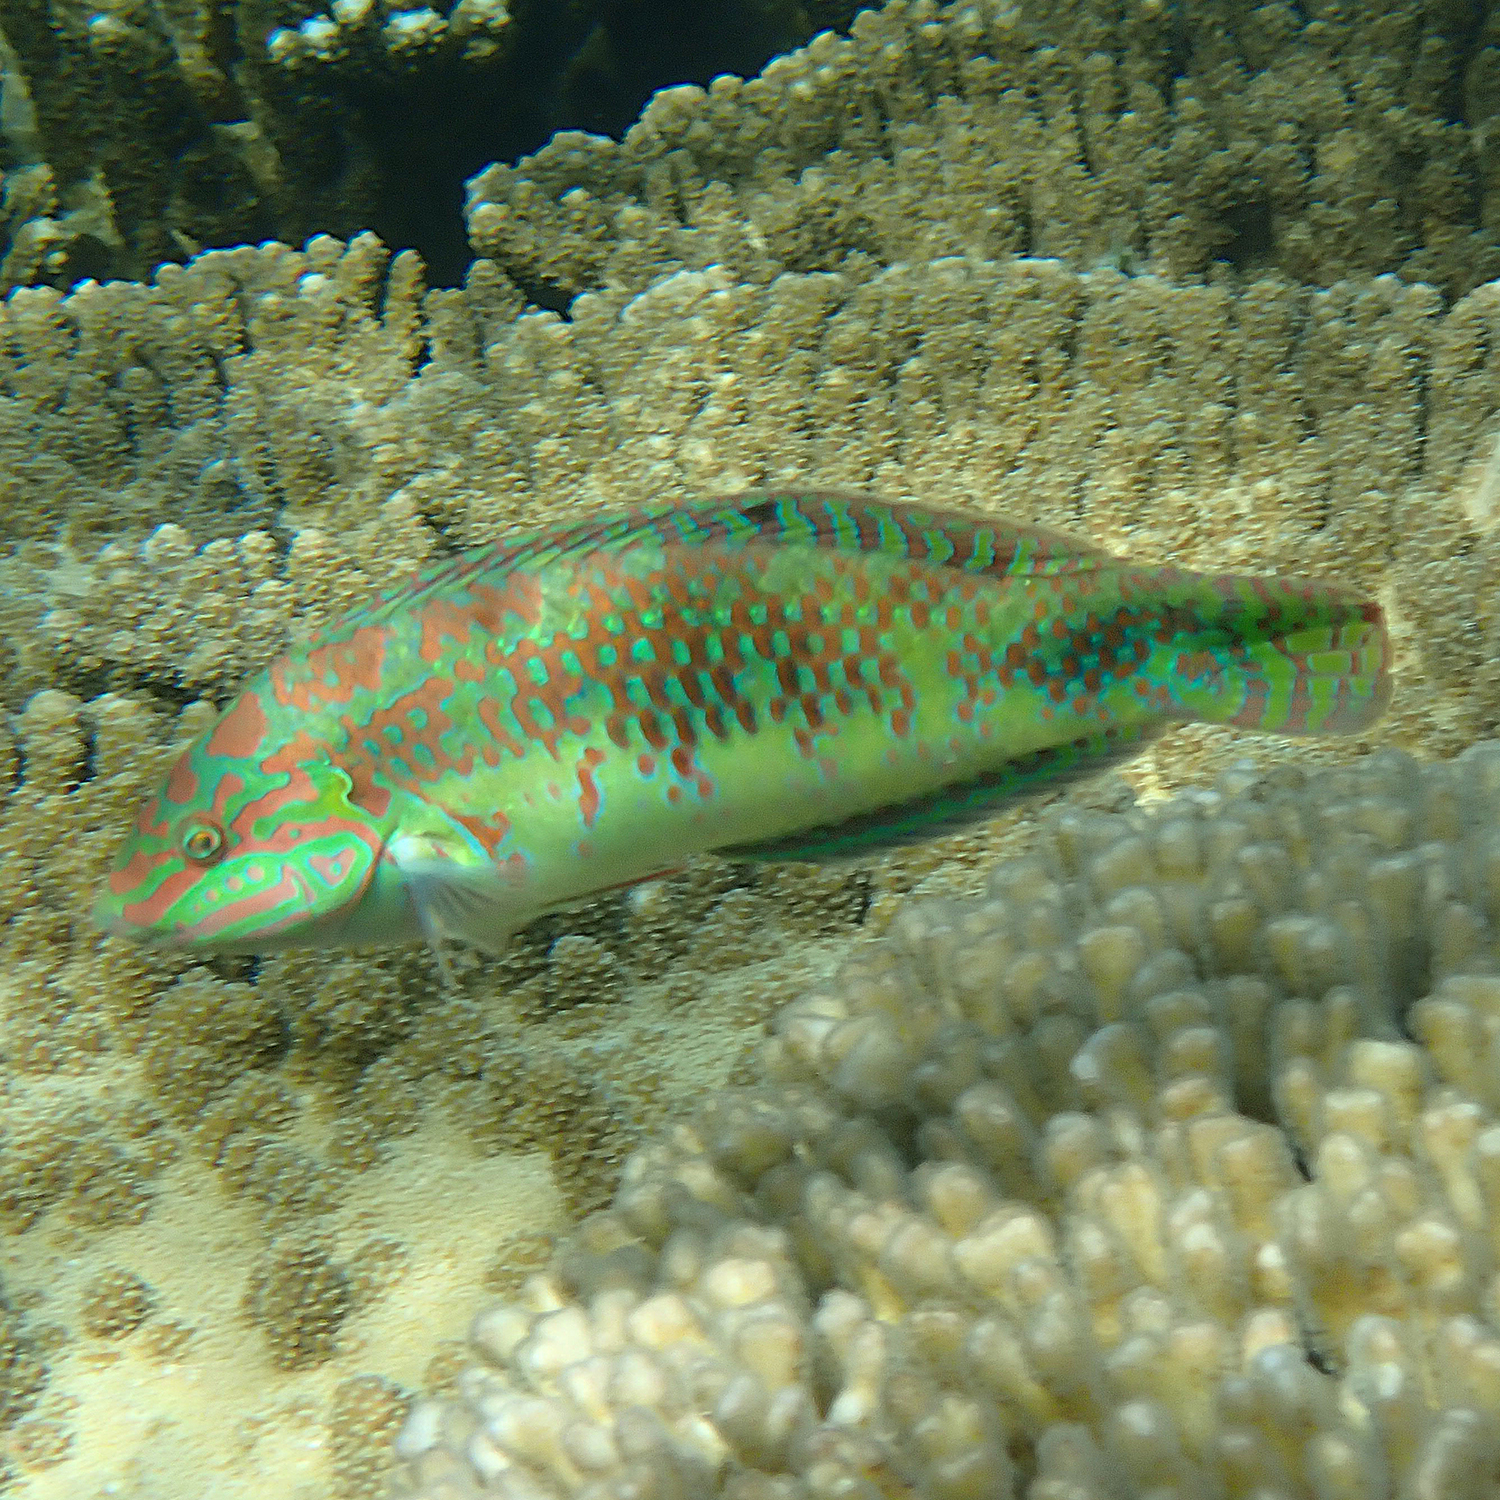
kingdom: Animalia
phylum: Chordata
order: Perciformes
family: Labridae
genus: Halichoeres
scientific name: Halichoeres margaritaceus
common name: Pink-belly wrasse
